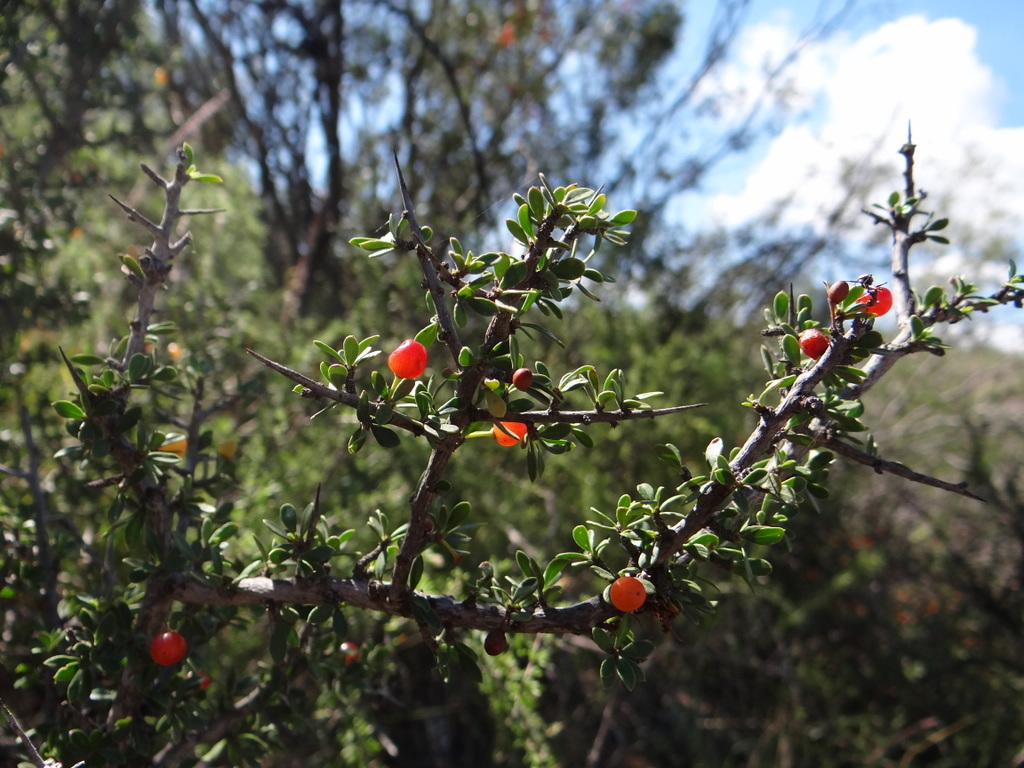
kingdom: Plantae
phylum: Tracheophyta
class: Magnoliopsida
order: Rosales
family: Rhamnaceae
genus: Condalia
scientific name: Condalia microphylla
